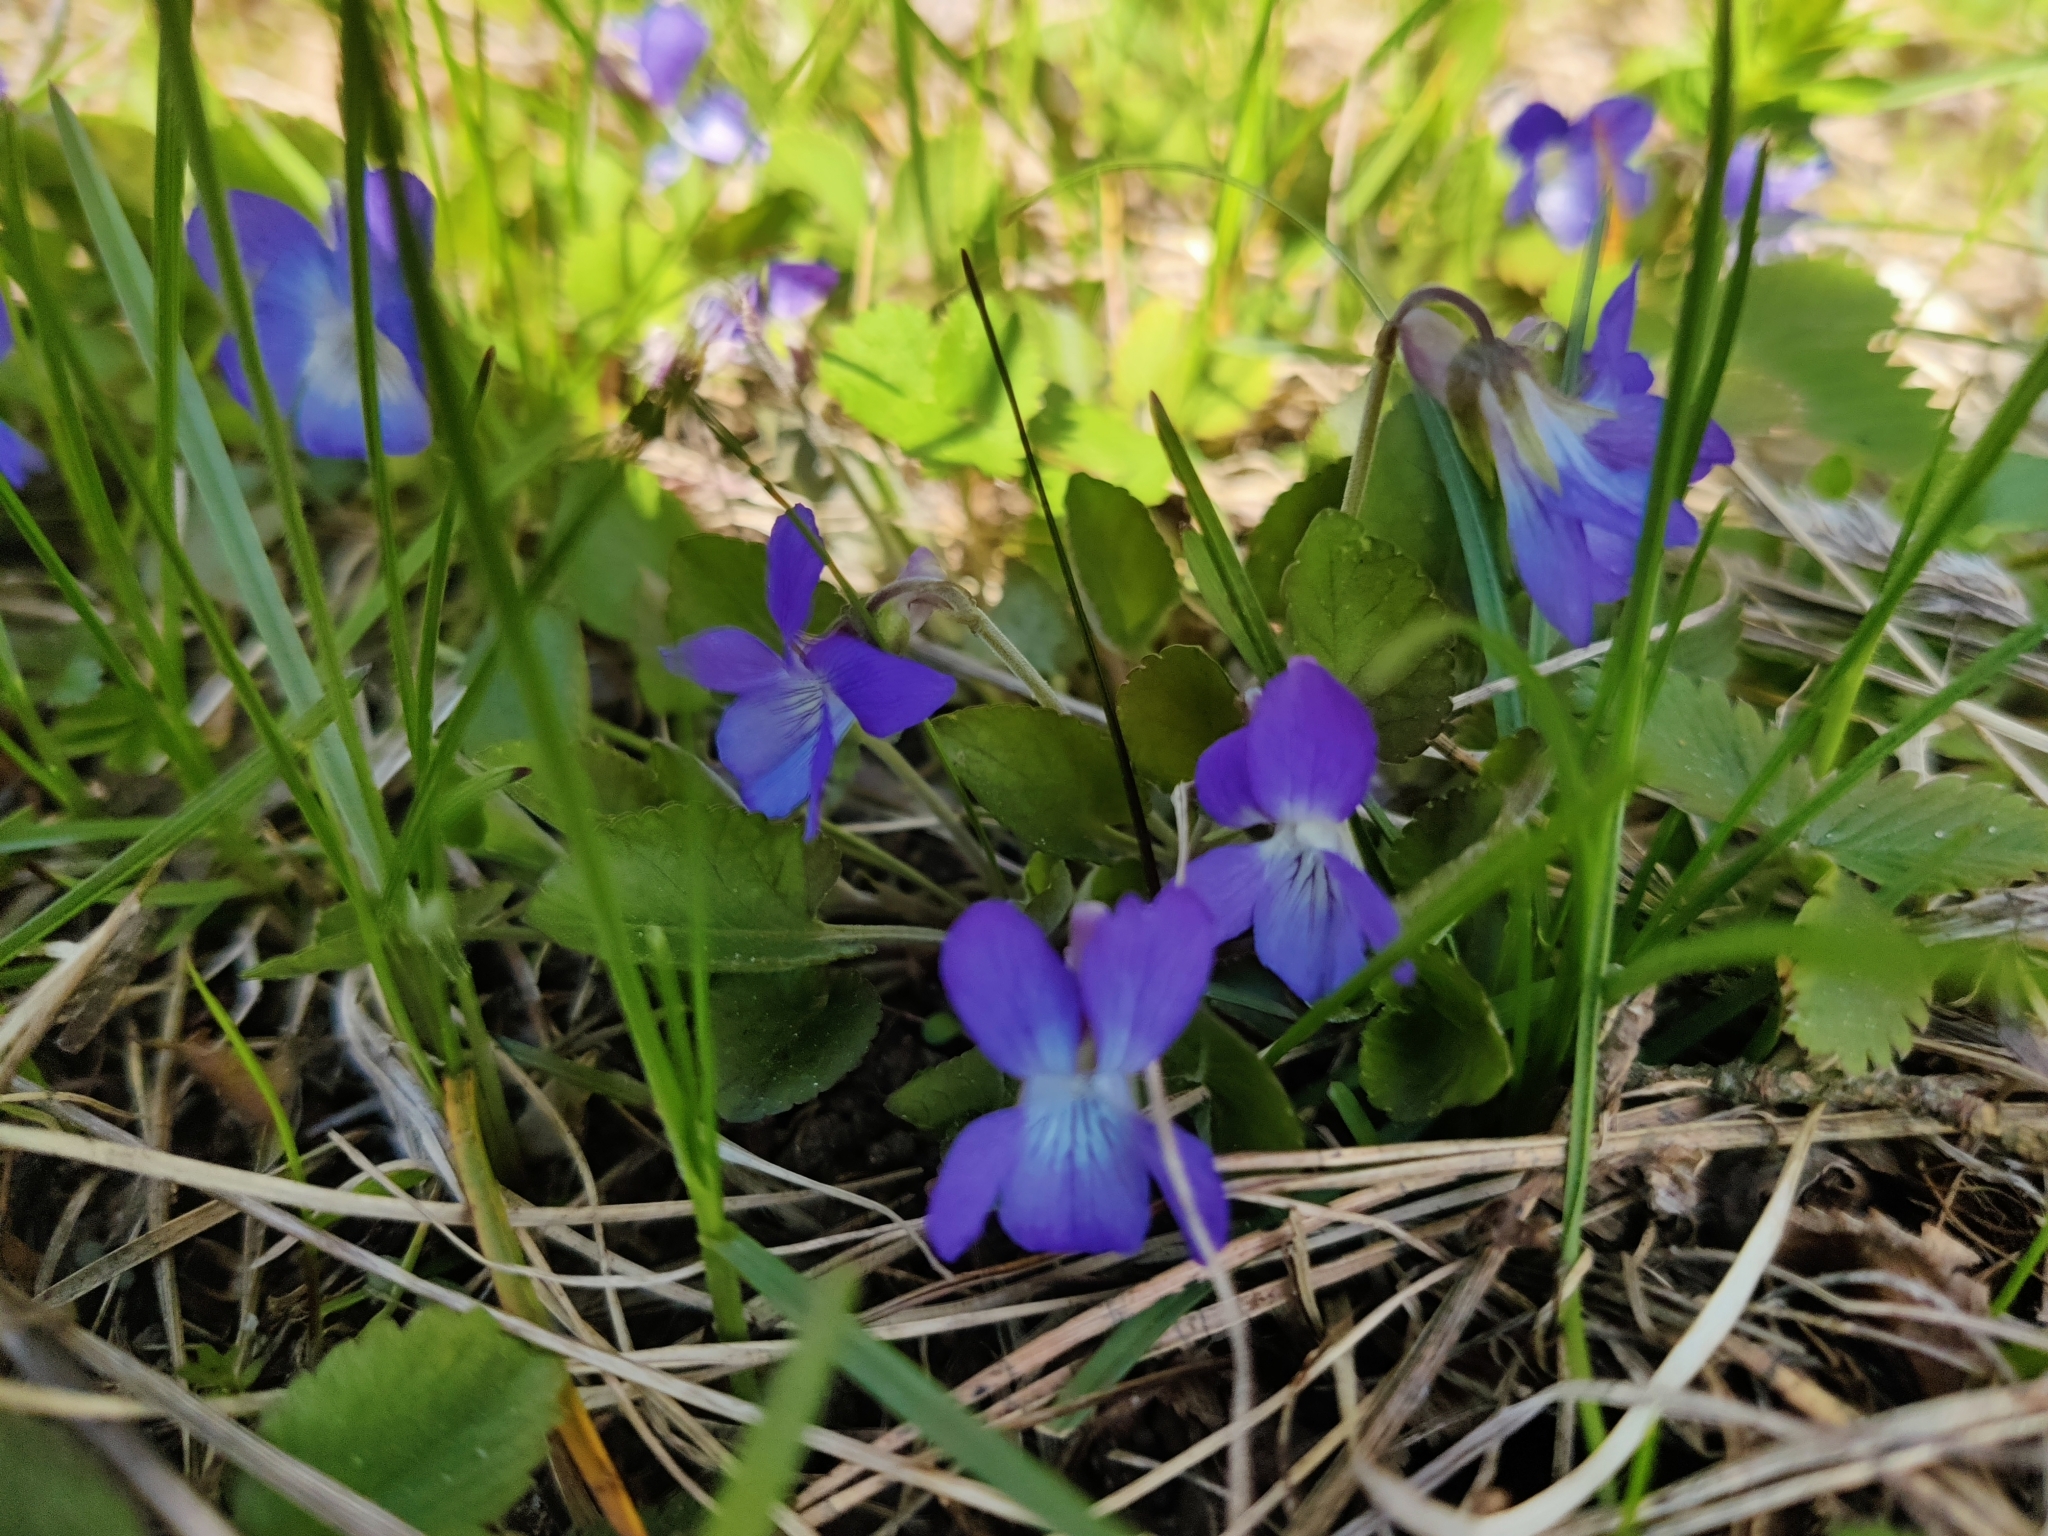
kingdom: Plantae
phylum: Tracheophyta
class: Magnoliopsida
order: Malpighiales
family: Violaceae
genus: Viola
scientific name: Viola rupestris
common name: Teesdale violet
